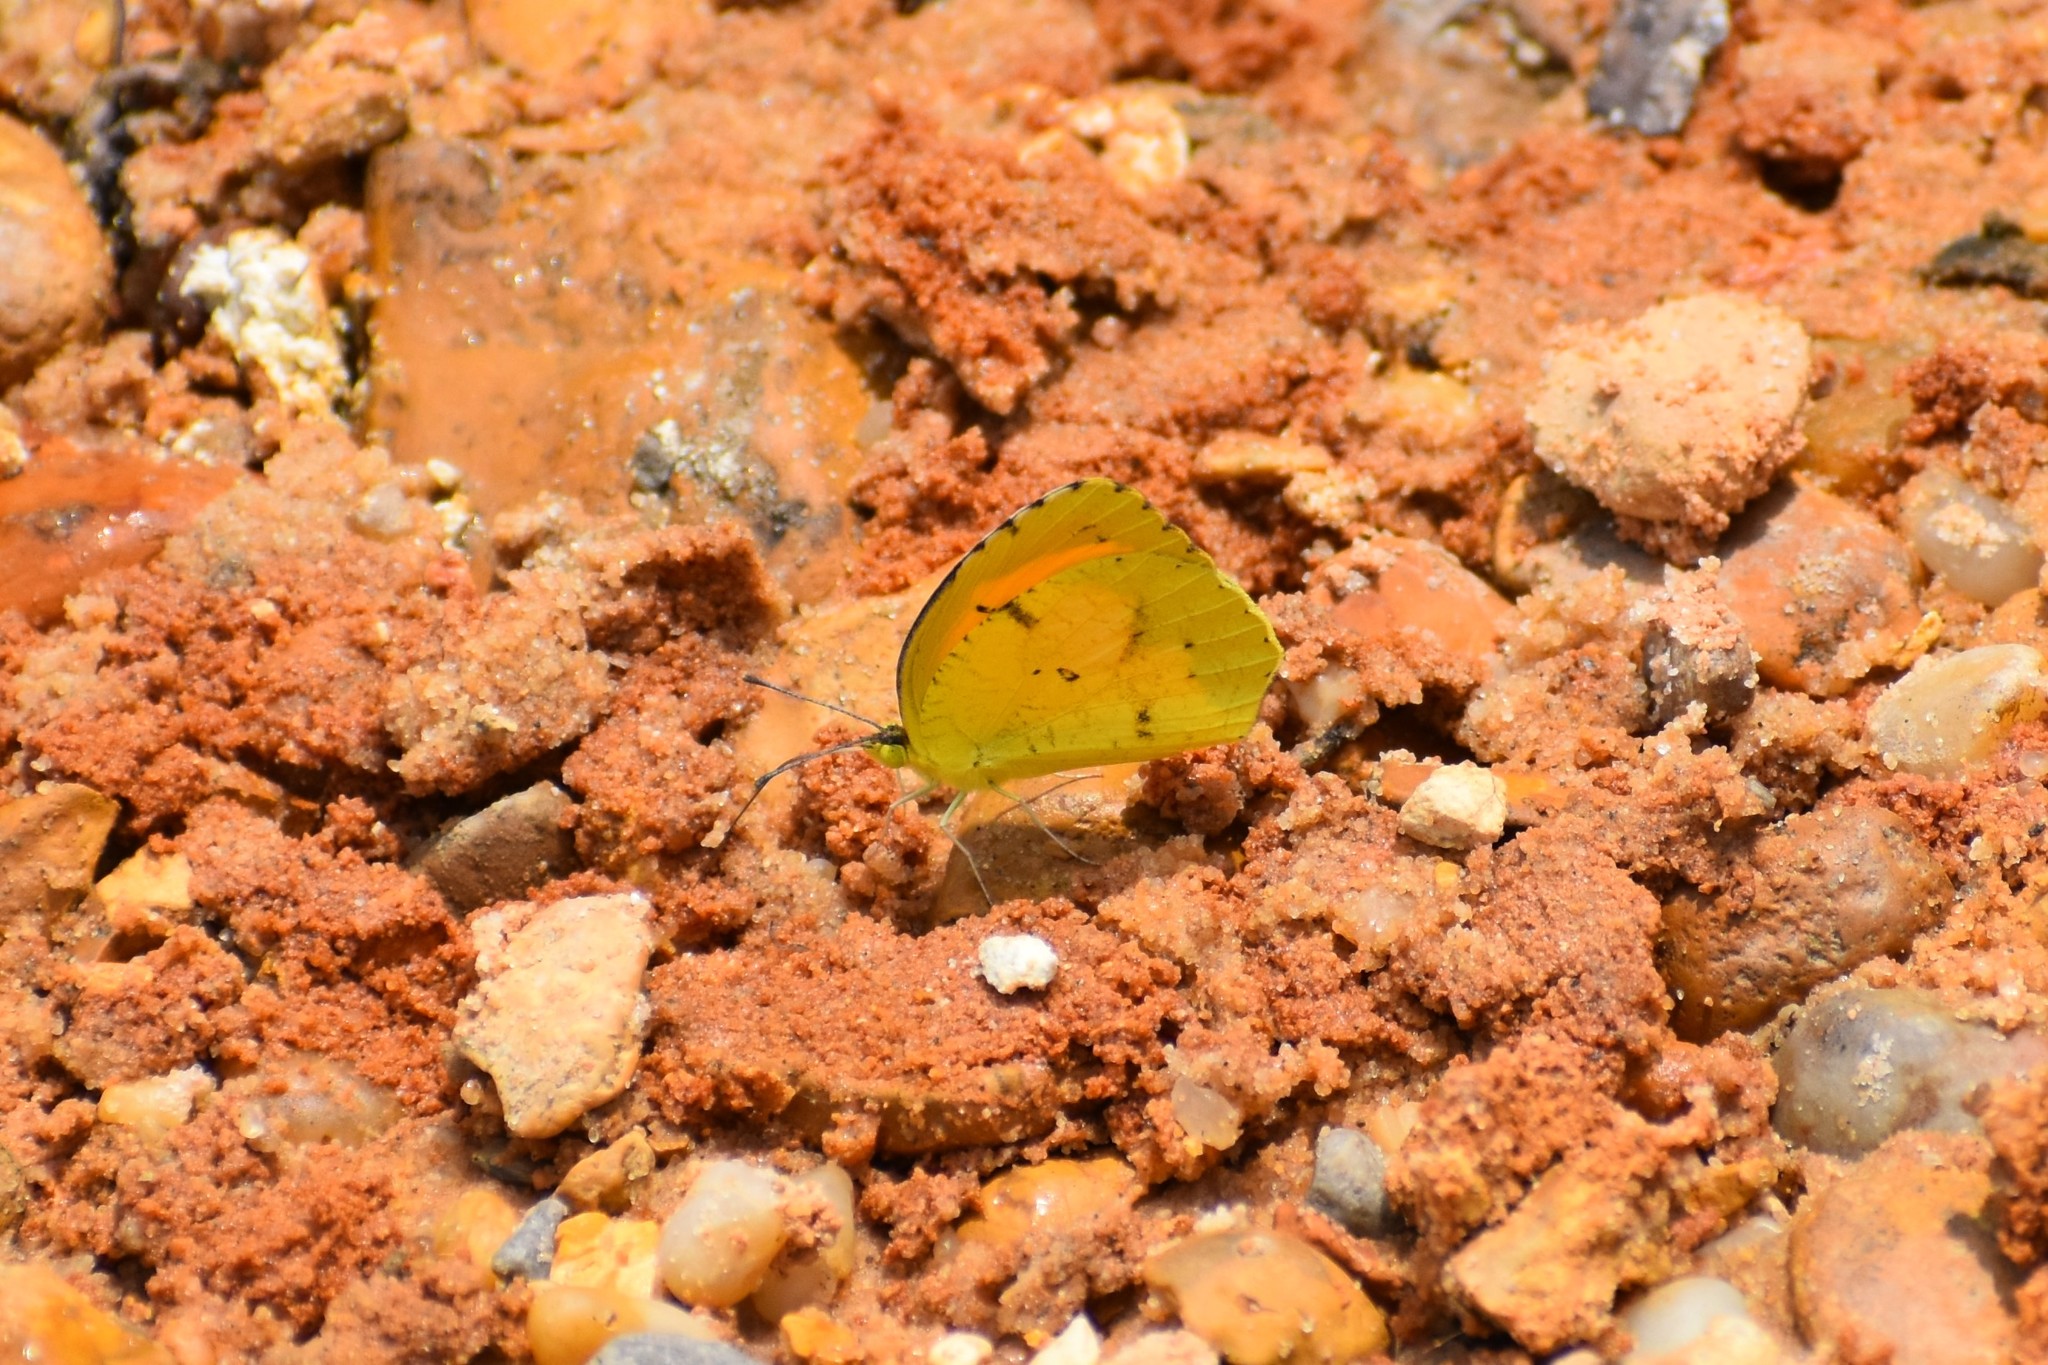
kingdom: Animalia
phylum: Arthropoda
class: Insecta
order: Lepidoptera
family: Pieridae
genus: Abaeis
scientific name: Abaeis nicippe
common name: Sleepy orange
